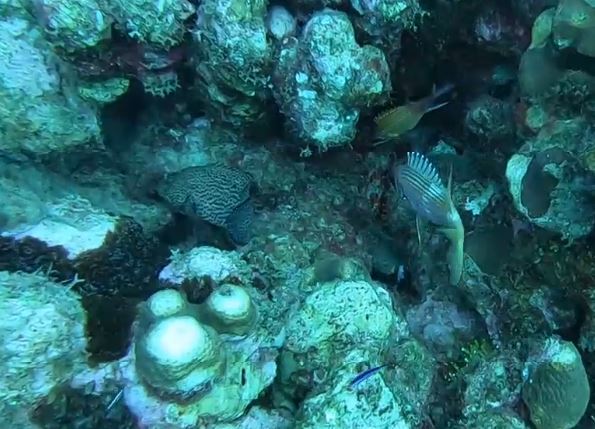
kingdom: Animalia
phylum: Chordata
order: Perciformes
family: Serranidae
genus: Cephalopholis
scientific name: Cephalopholis cruentata
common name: Graysby
